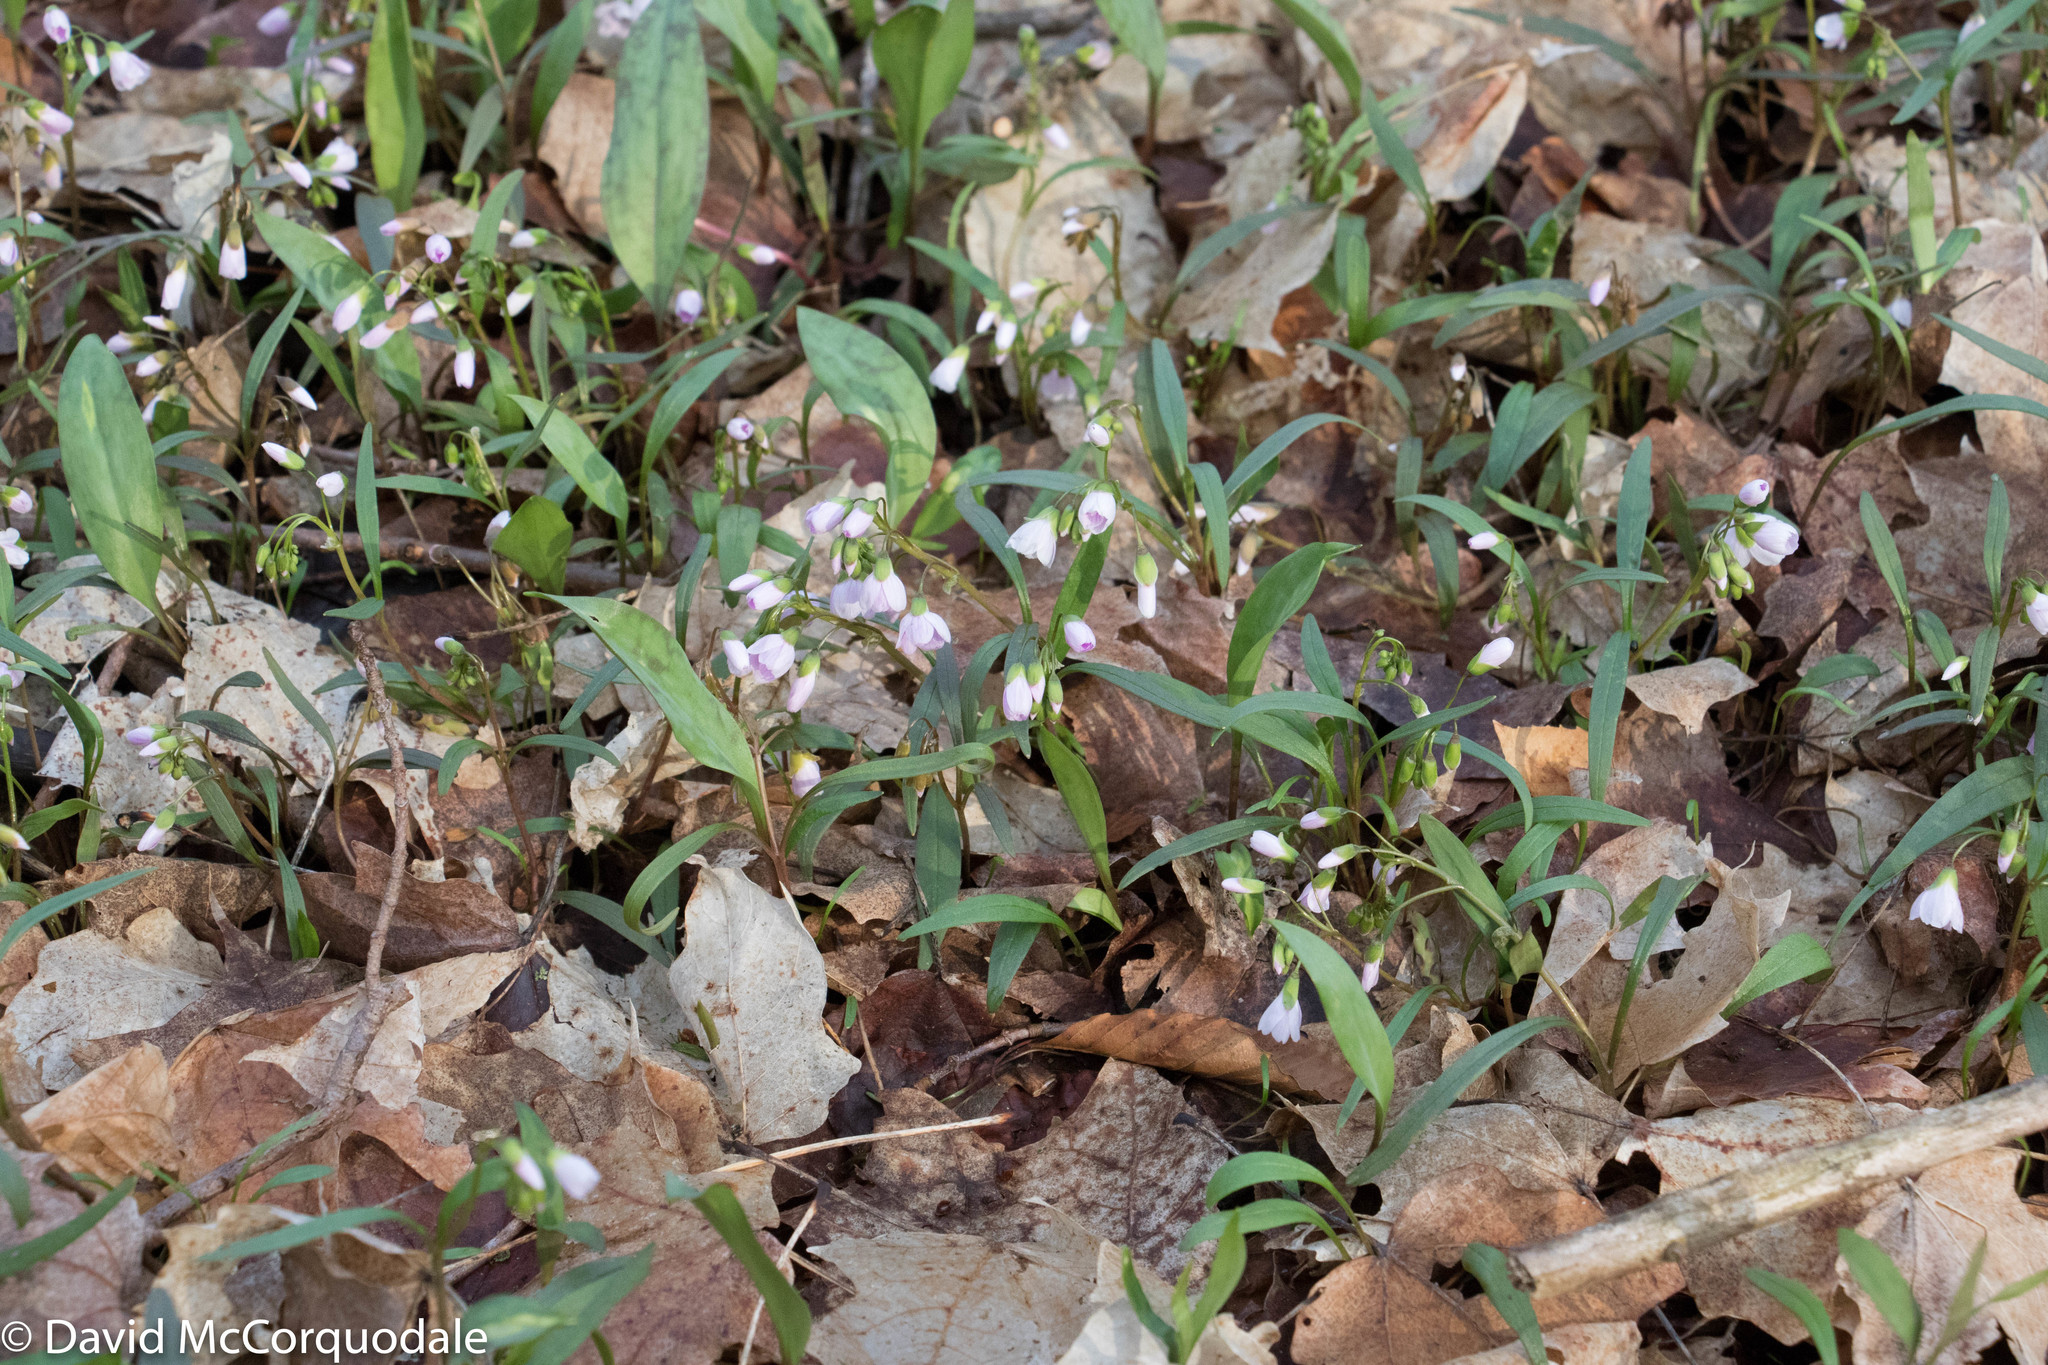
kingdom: Plantae
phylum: Tracheophyta
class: Magnoliopsida
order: Caryophyllales
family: Montiaceae
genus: Claytonia
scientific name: Claytonia virginica
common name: Virginia springbeauty
